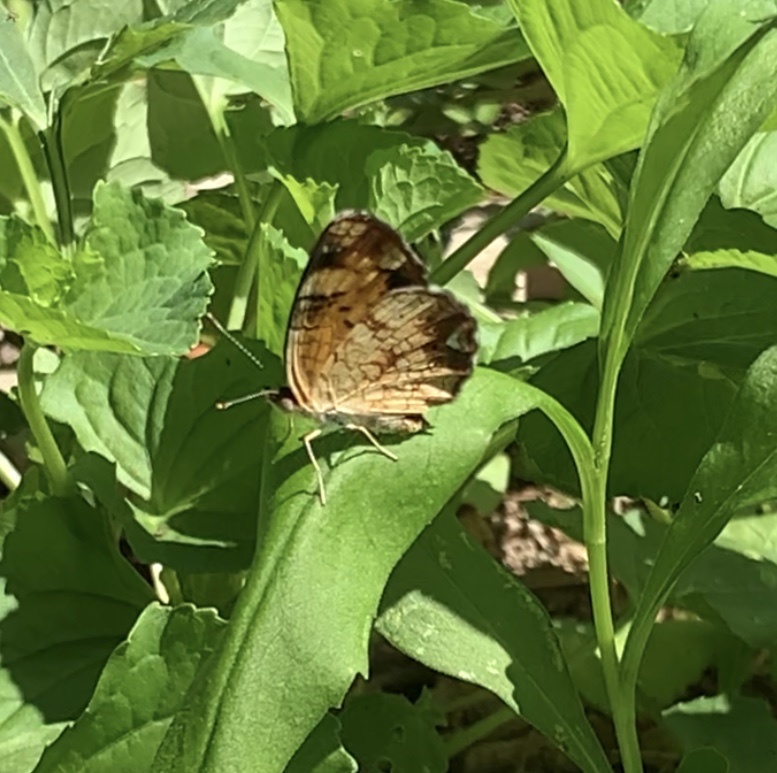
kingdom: Animalia
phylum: Arthropoda
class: Insecta
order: Lepidoptera
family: Nymphalidae
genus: Phyciodes
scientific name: Phyciodes tharos
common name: Pearl crescent
